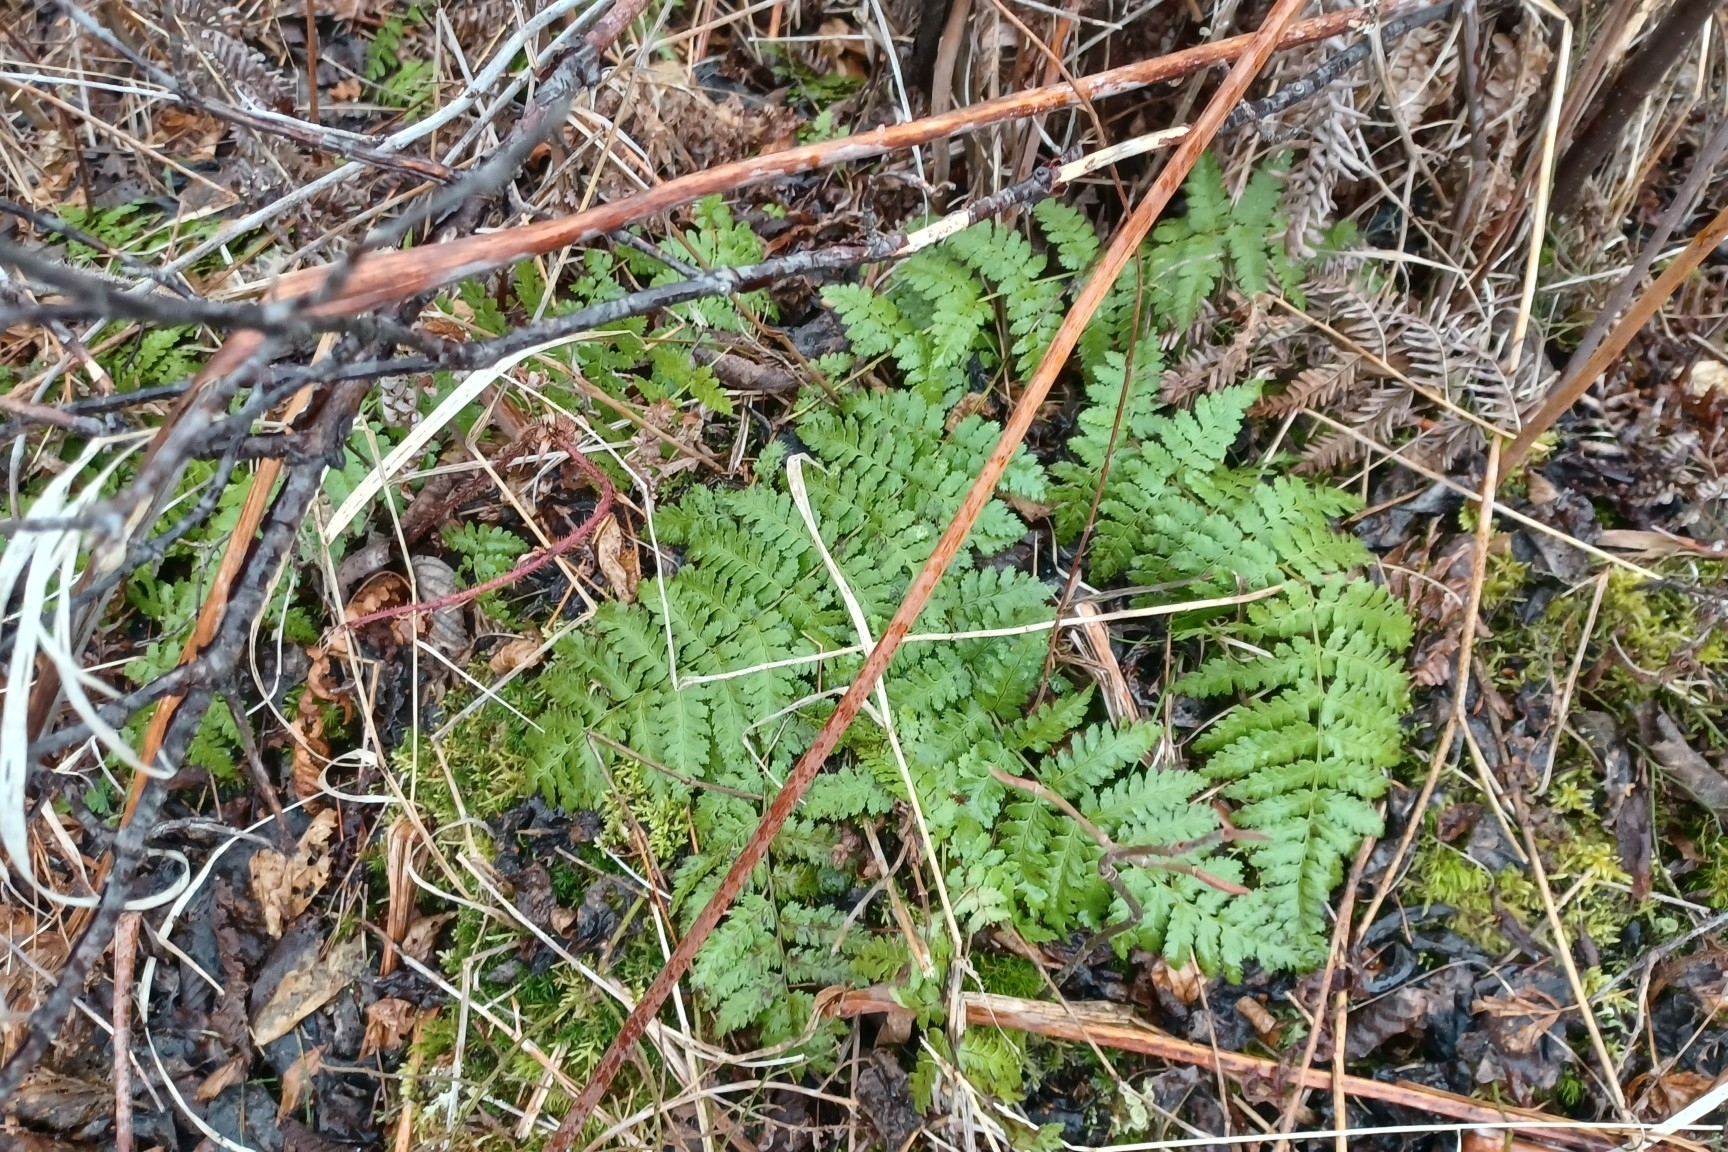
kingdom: Plantae
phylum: Tracheophyta
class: Polypodiopsida
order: Polypodiales
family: Dryopteridaceae
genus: Dryopteris
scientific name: Dryopteris intermedia
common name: Evergreen wood fern
